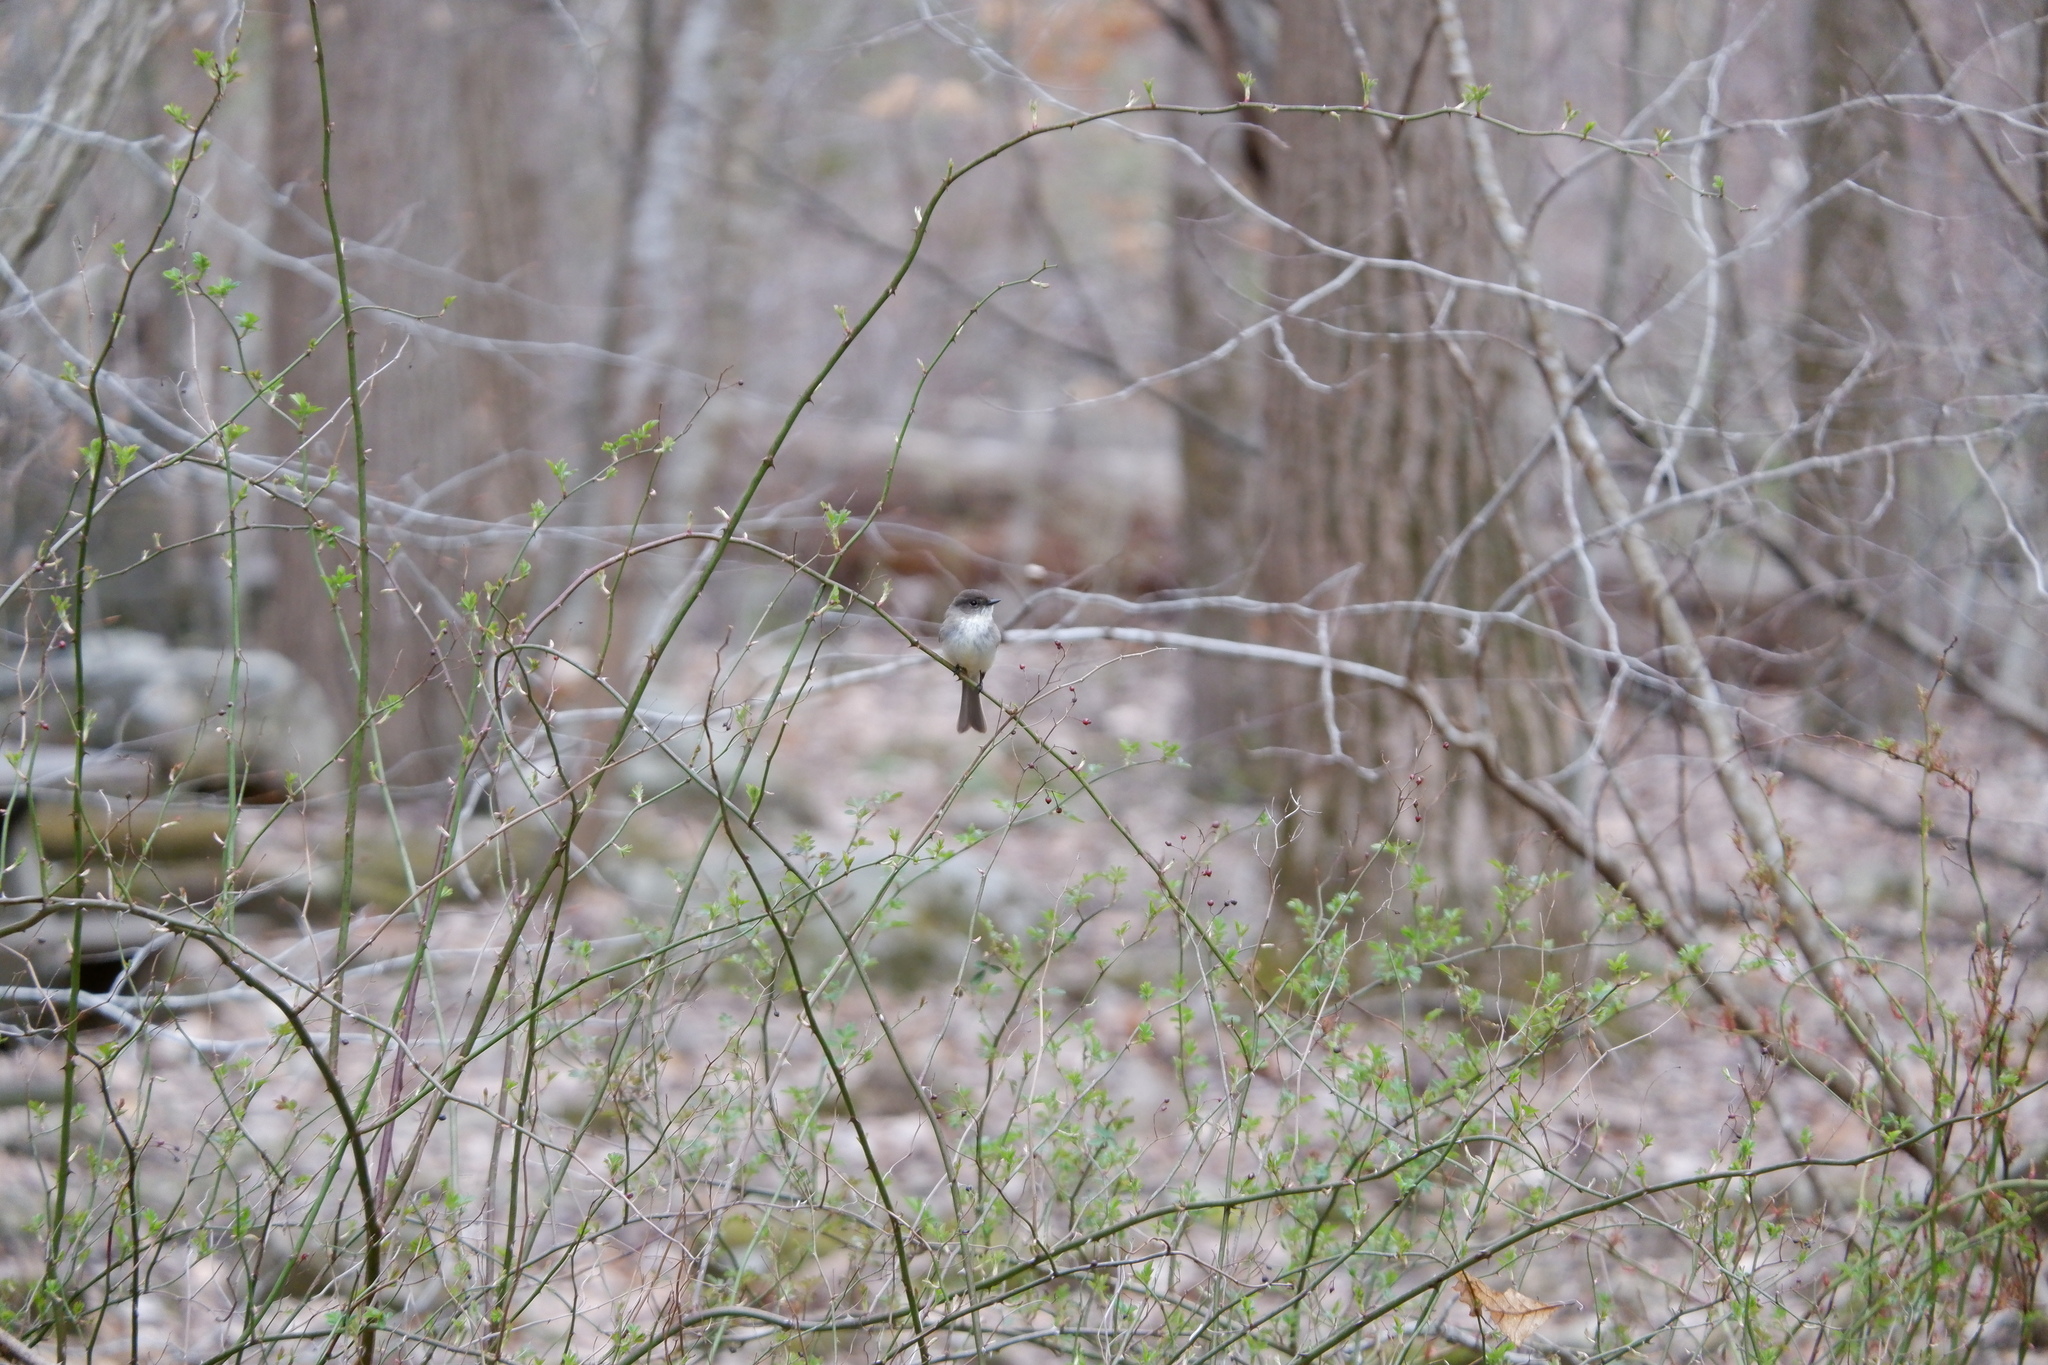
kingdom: Animalia
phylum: Chordata
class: Aves
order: Passeriformes
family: Tyrannidae
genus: Sayornis
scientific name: Sayornis phoebe
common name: Eastern phoebe
